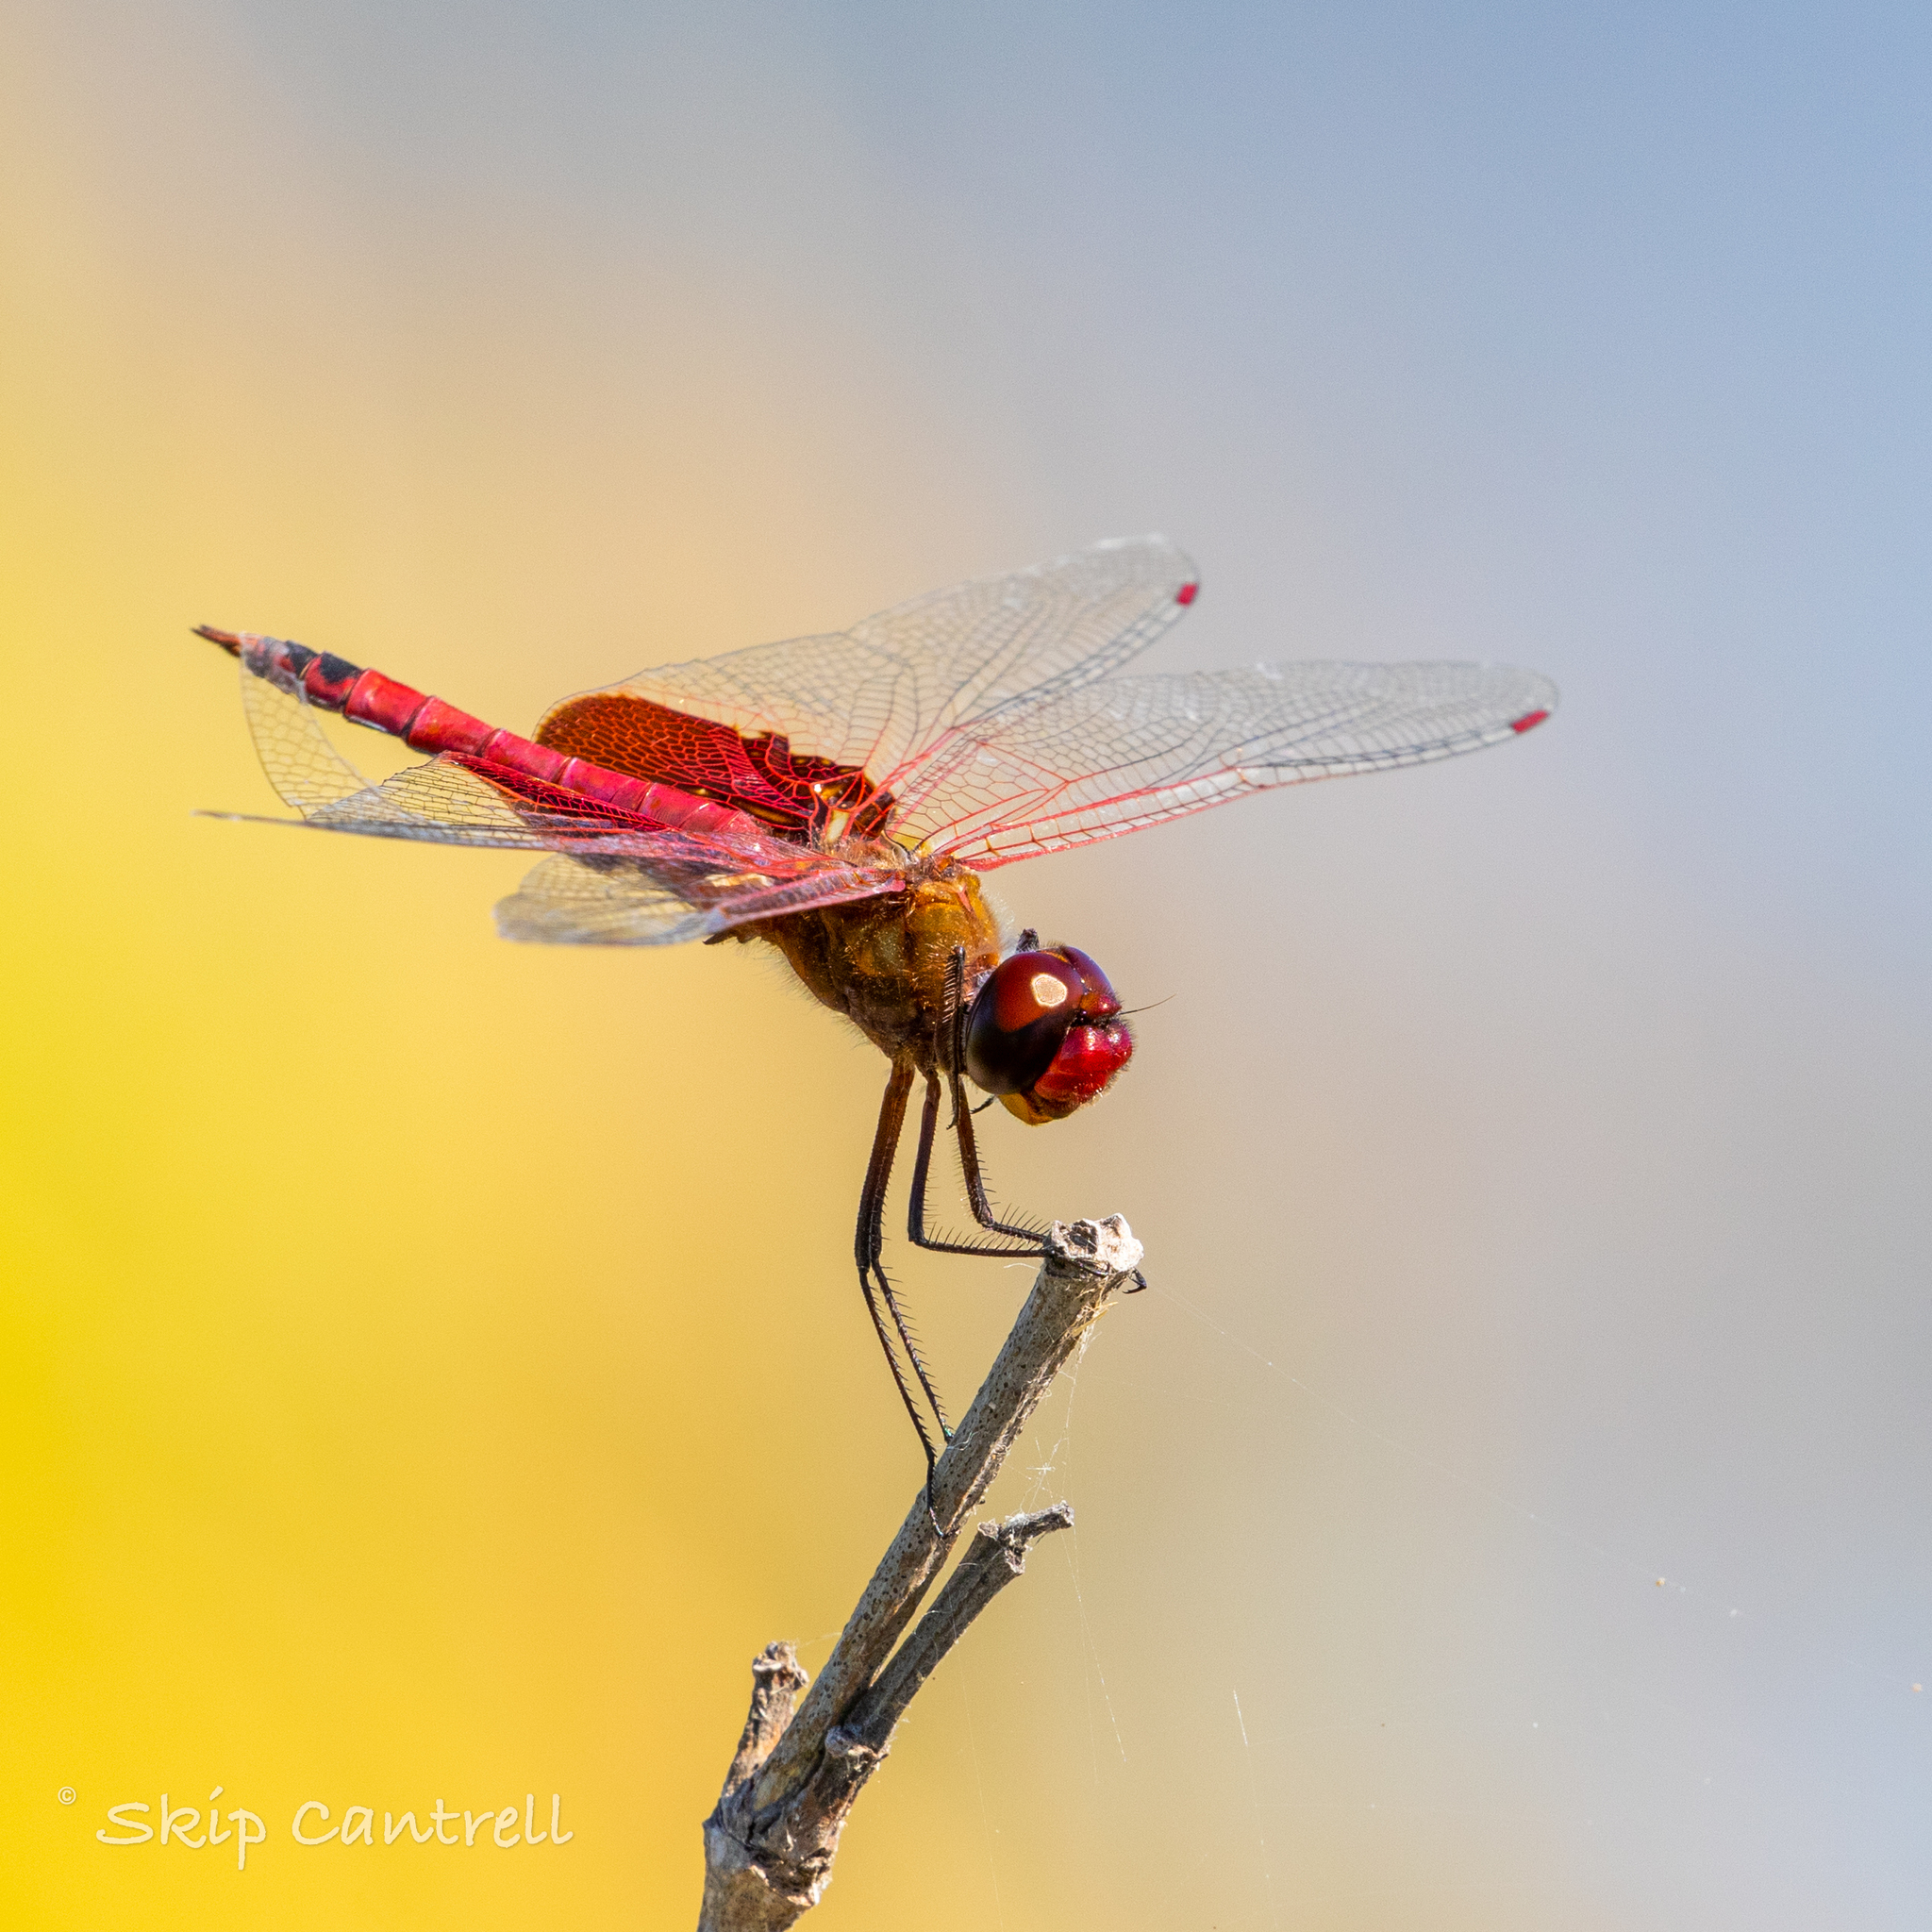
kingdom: Animalia
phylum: Arthropoda
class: Insecta
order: Odonata
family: Libellulidae
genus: Tramea
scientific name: Tramea onusta
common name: Red saddlebags
